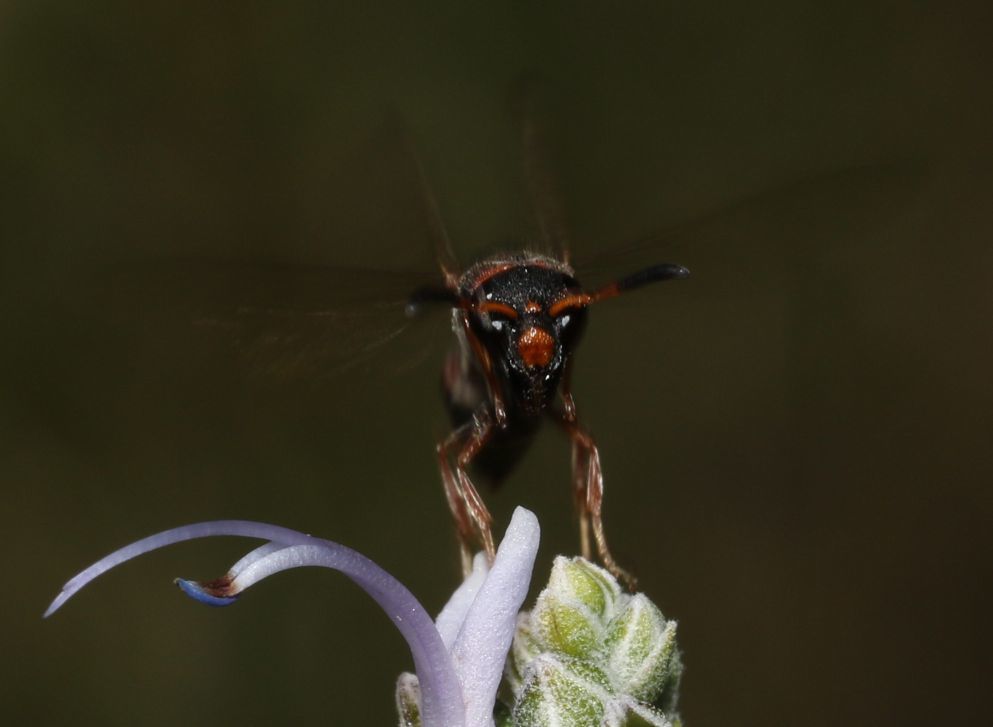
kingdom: Animalia
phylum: Arthropoda
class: Insecta
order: Hymenoptera
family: Eumenidae
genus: Pseudonortonia
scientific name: Pseudonortonia
